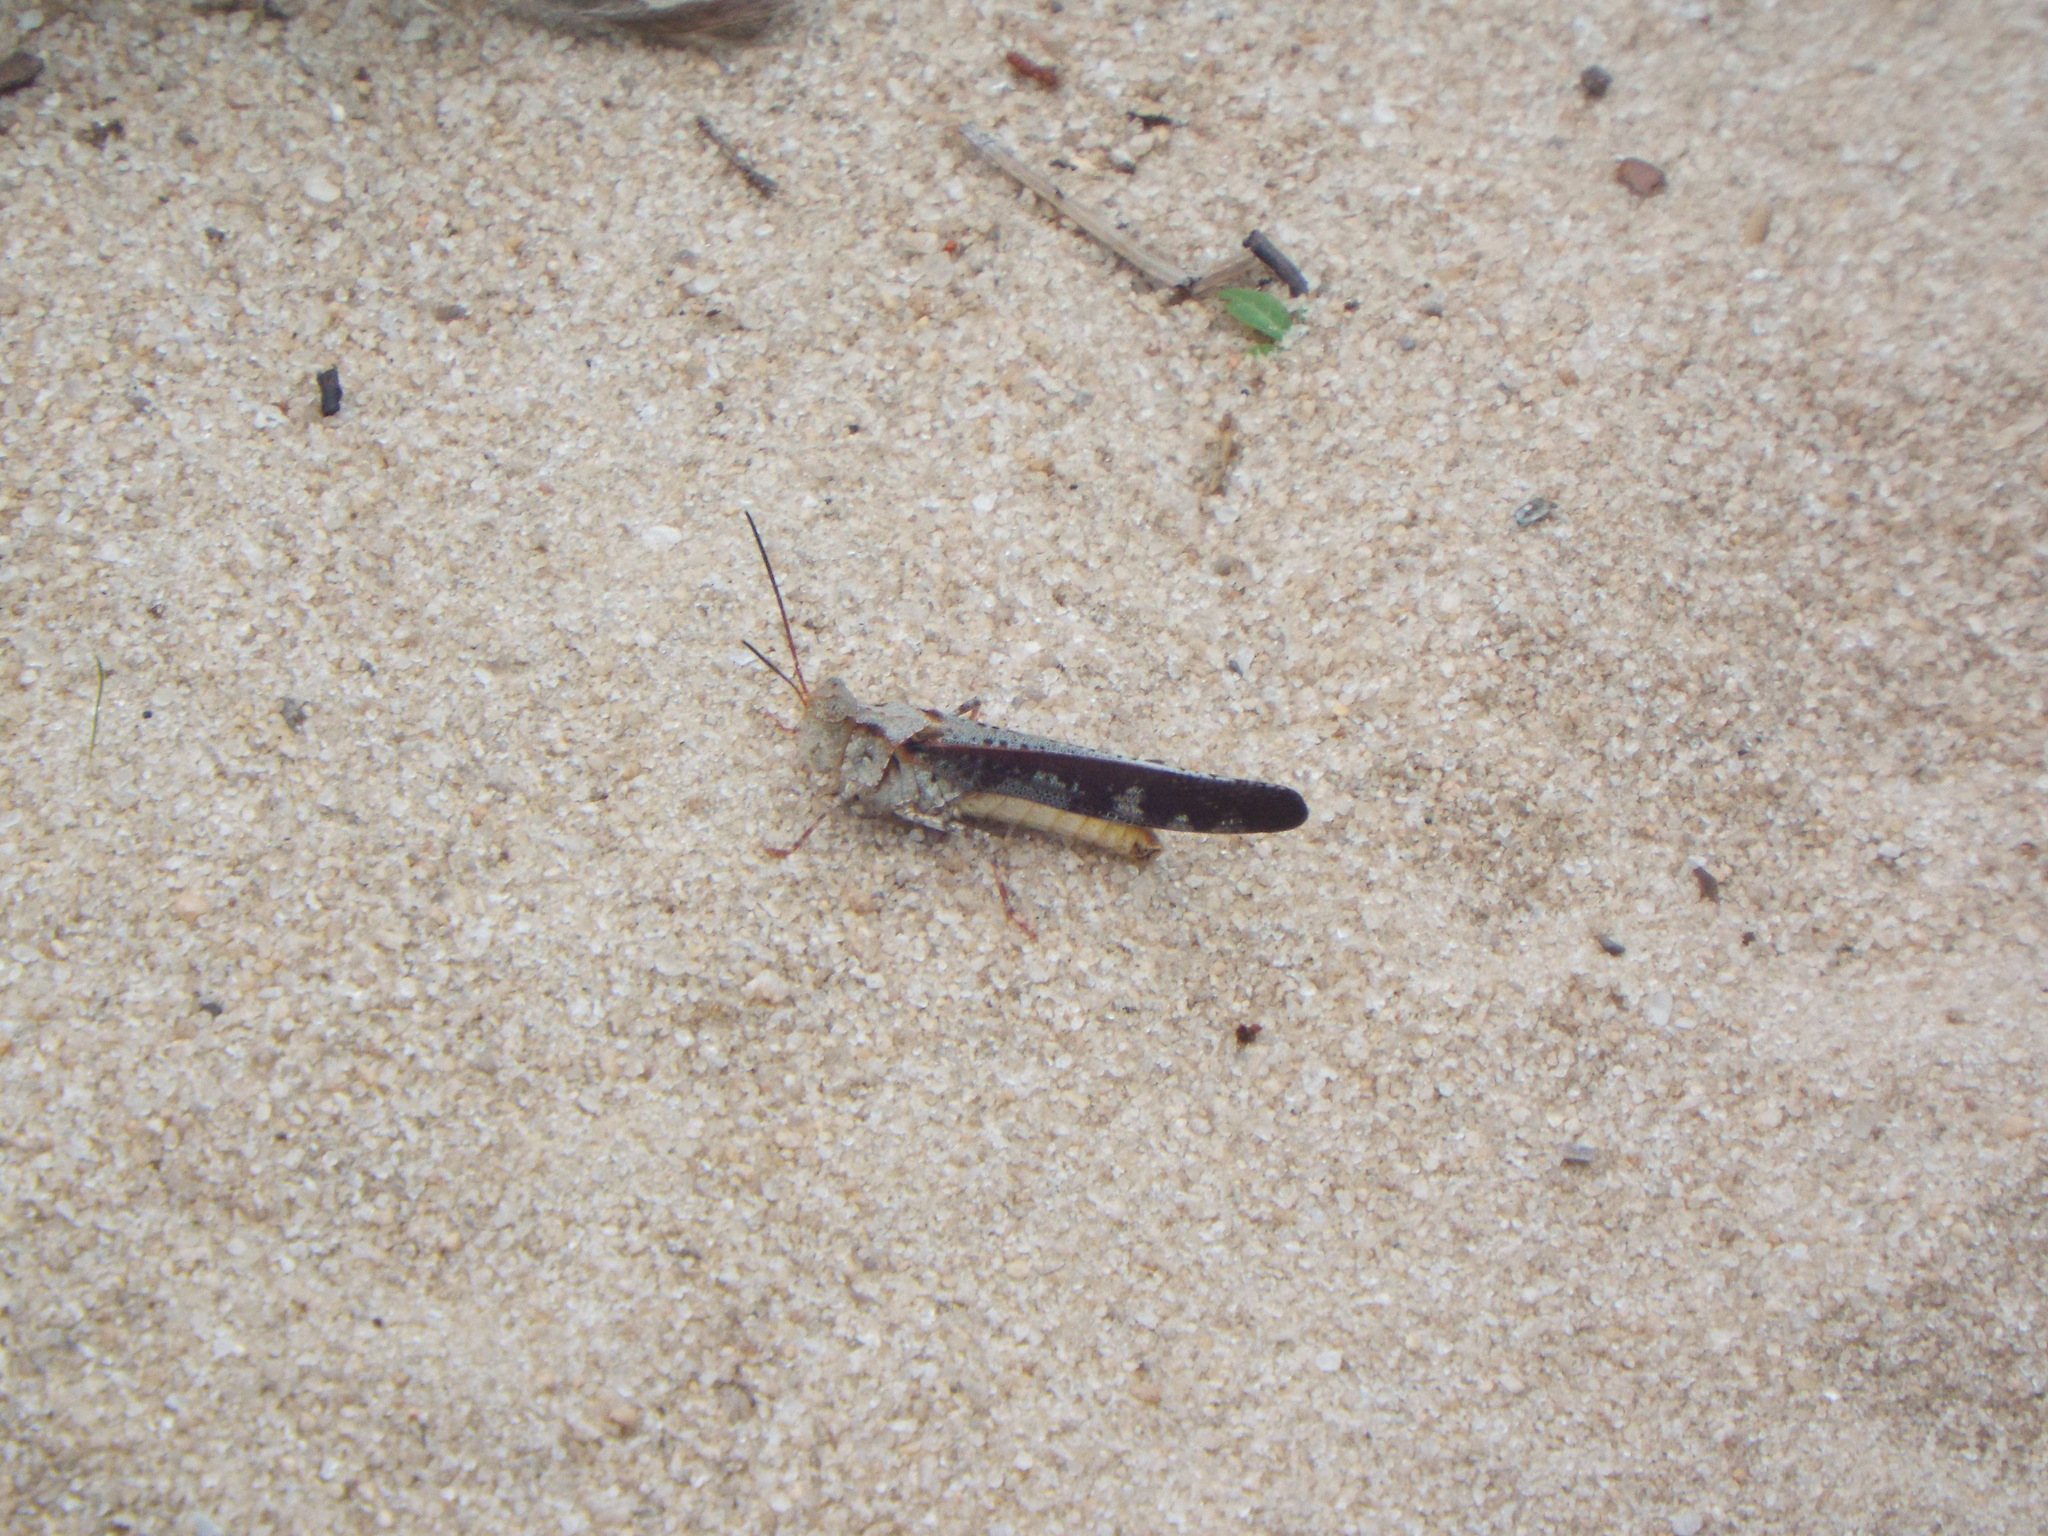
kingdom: Animalia
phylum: Arthropoda
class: Insecta
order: Orthoptera
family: Acrididae
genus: Spharagemon
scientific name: Spharagemon marmoratum
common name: Marbled grasshopper
